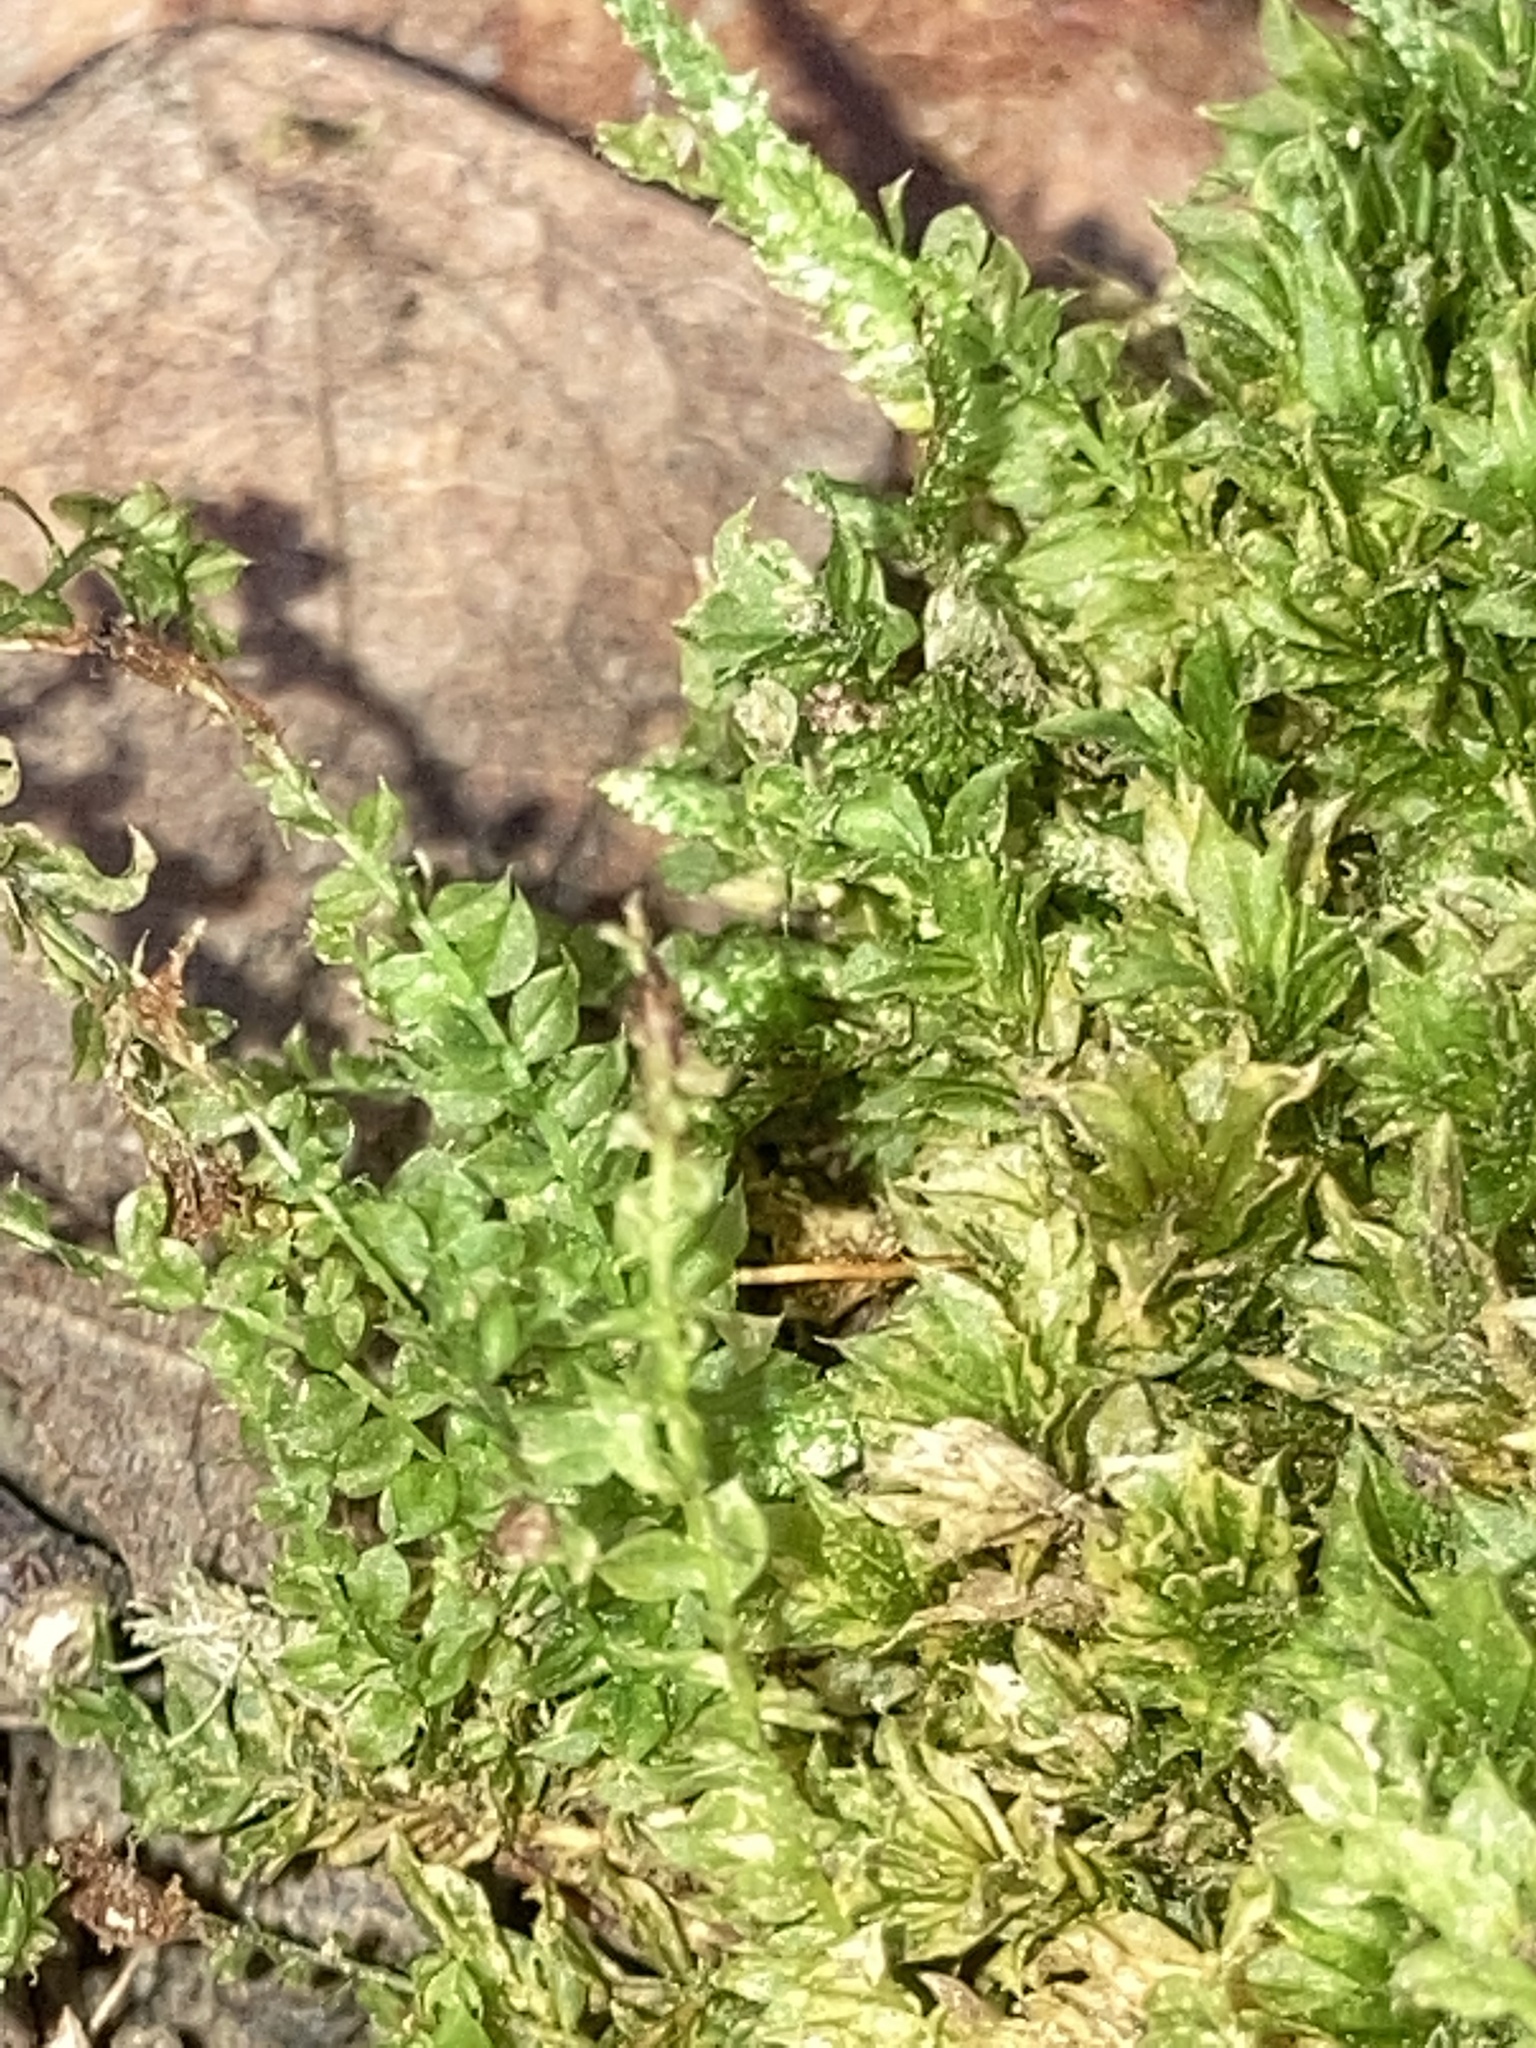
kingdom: Plantae
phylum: Bryophyta
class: Bryopsida
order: Bryales
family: Mniaceae
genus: Plagiomnium
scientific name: Plagiomnium ciliare
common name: Toothed leafy moss
